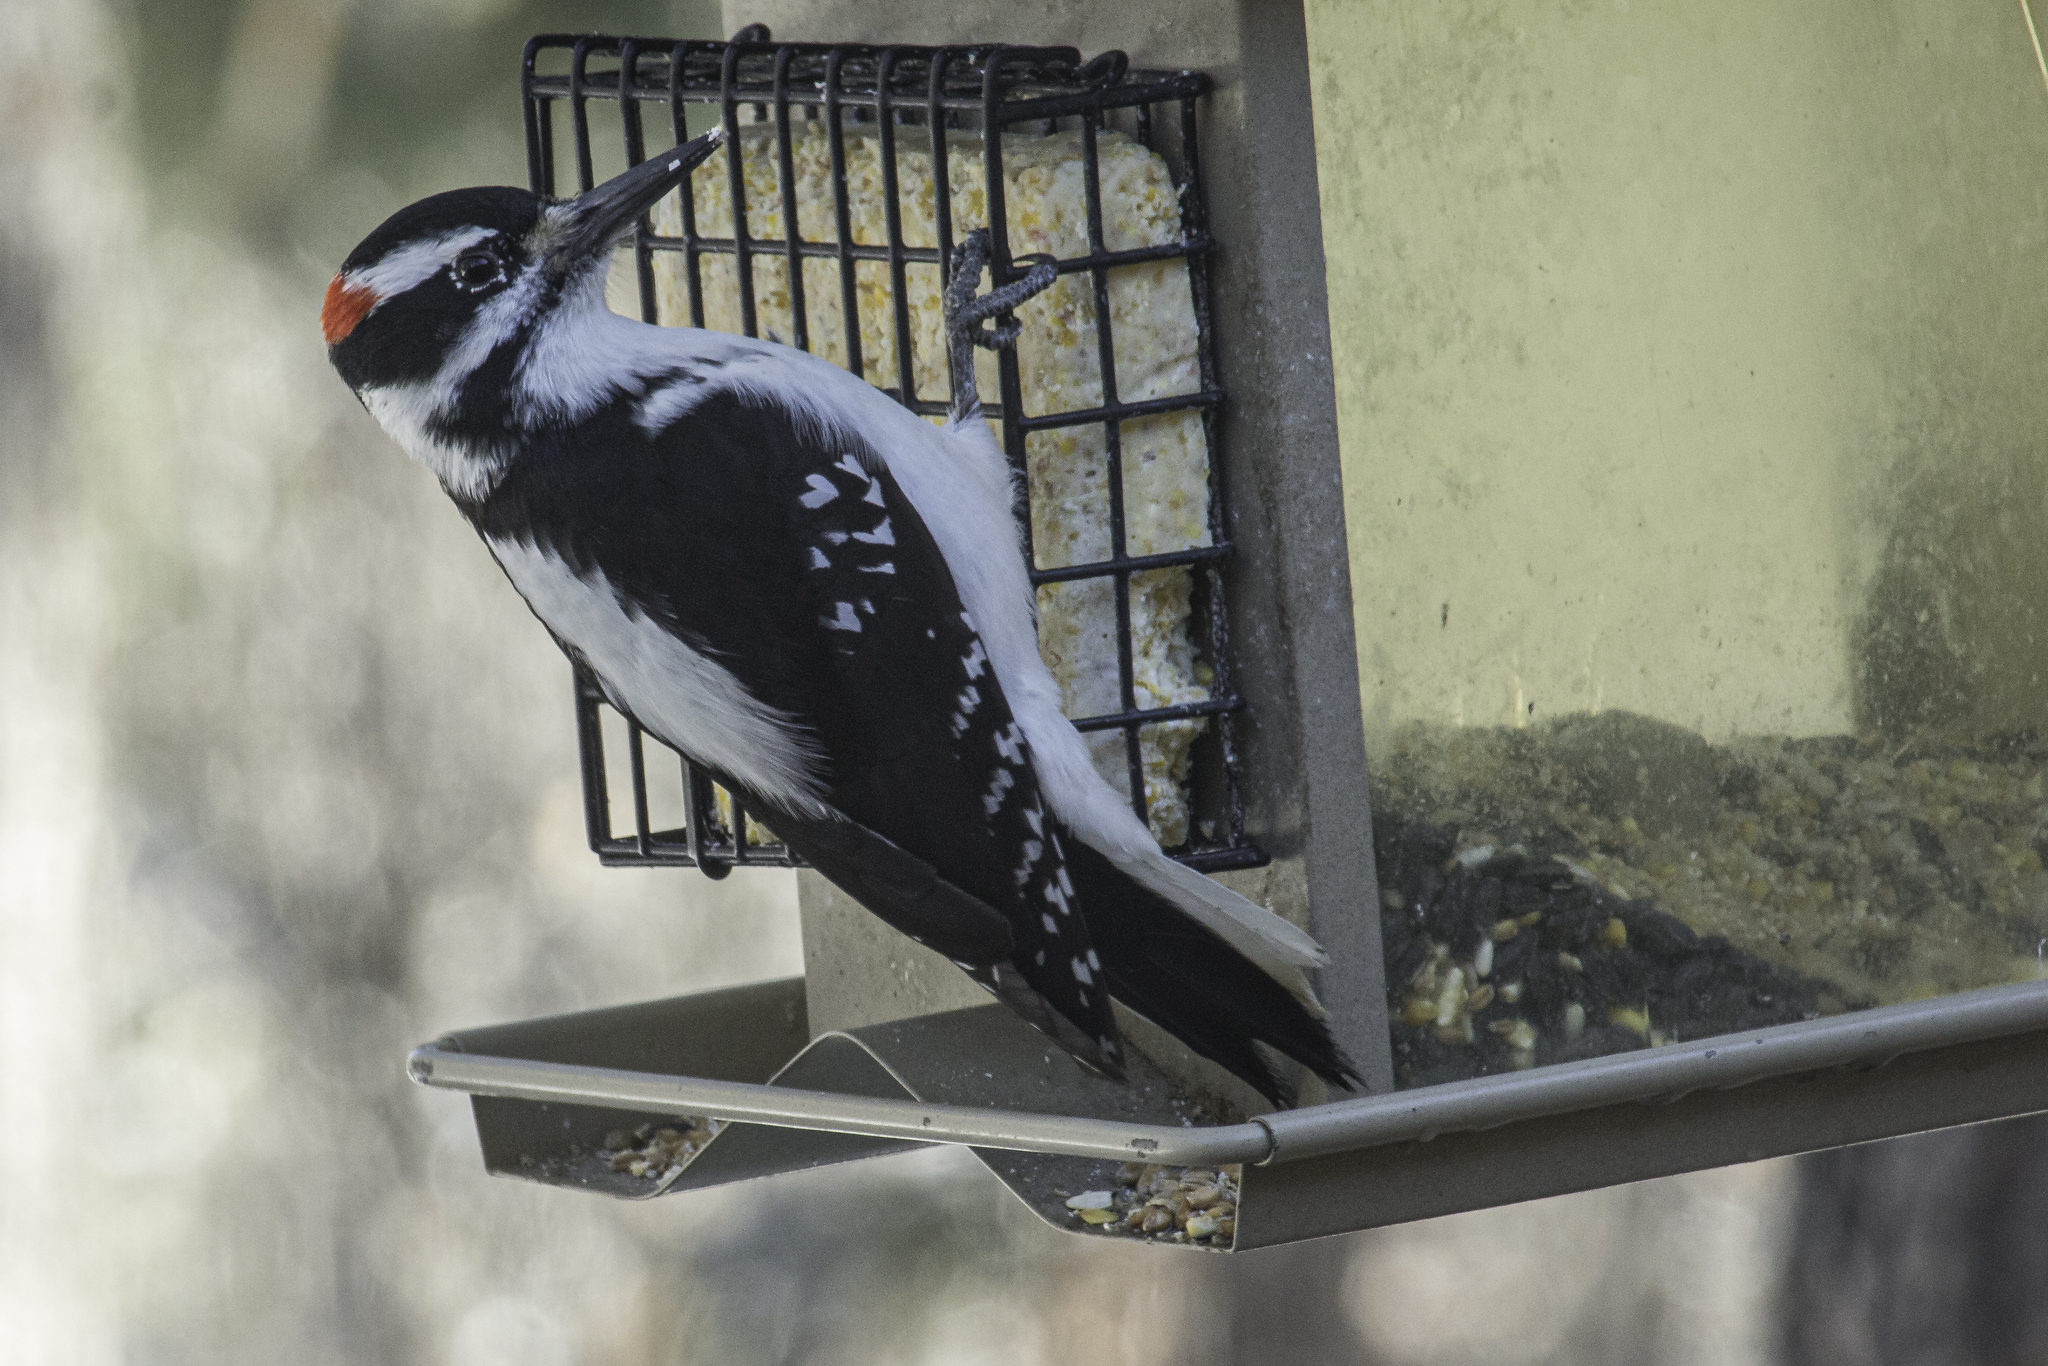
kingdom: Animalia
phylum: Chordata
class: Aves
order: Piciformes
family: Picidae
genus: Leuconotopicus
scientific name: Leuconotopicus villosus
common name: Hairy woodpecker
